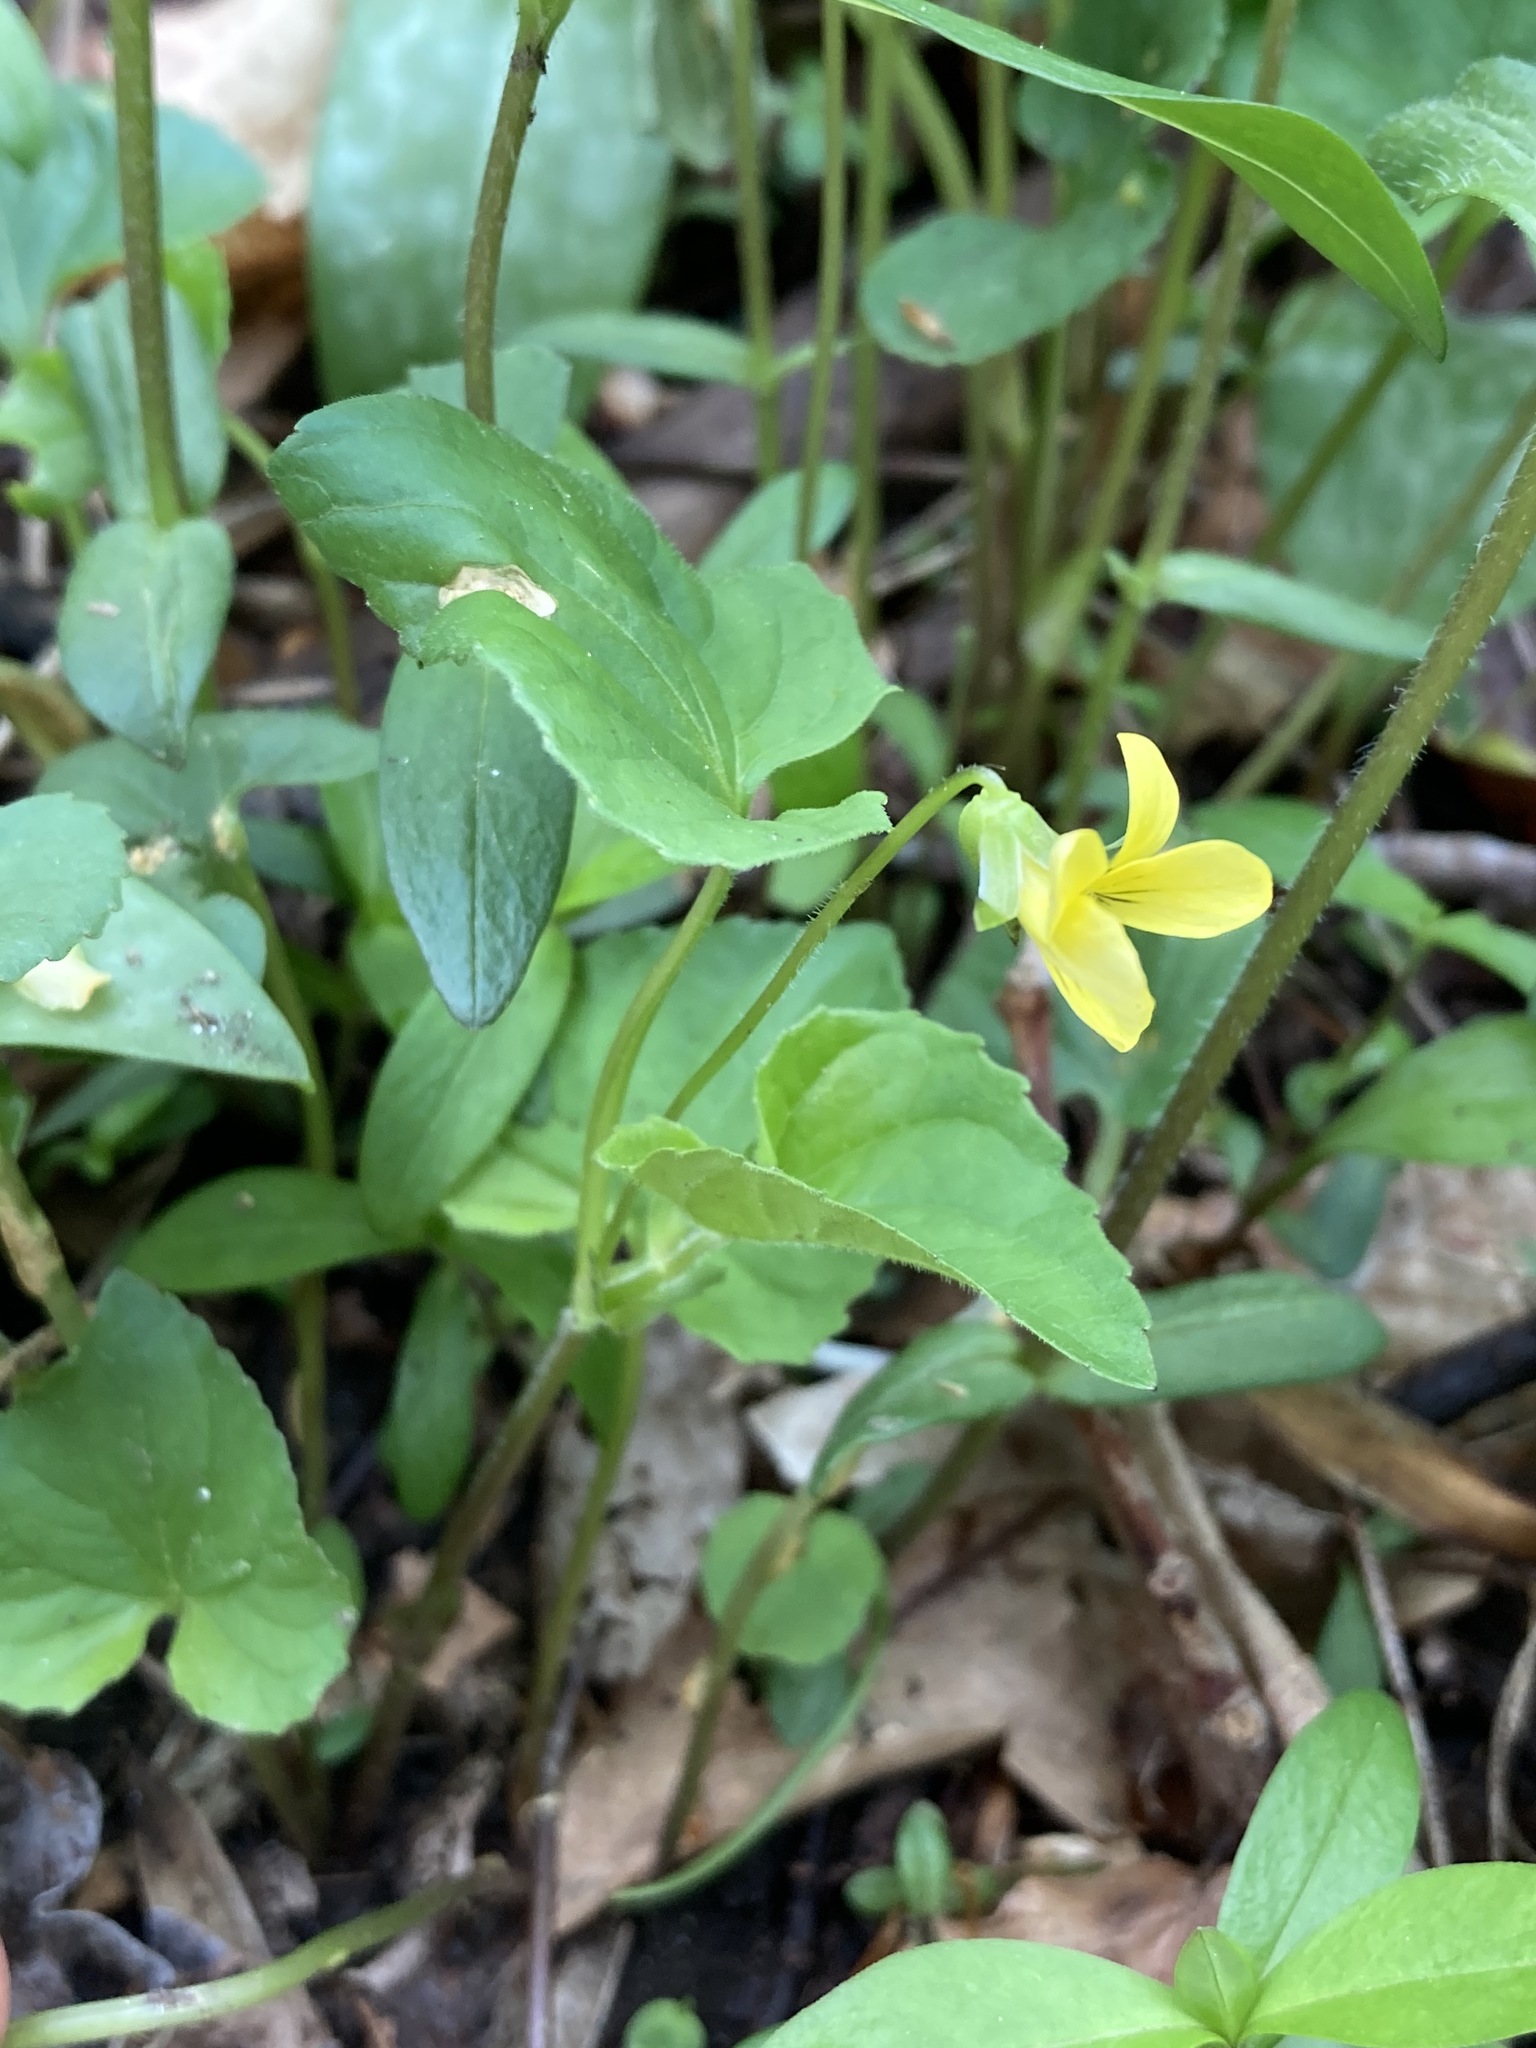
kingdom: Plantae
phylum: Tracheophyta
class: Magnoliopsida
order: Malpighiales
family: Violaceae
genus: Viola
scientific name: Viola eriocarpa
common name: Smooth yellow violet
